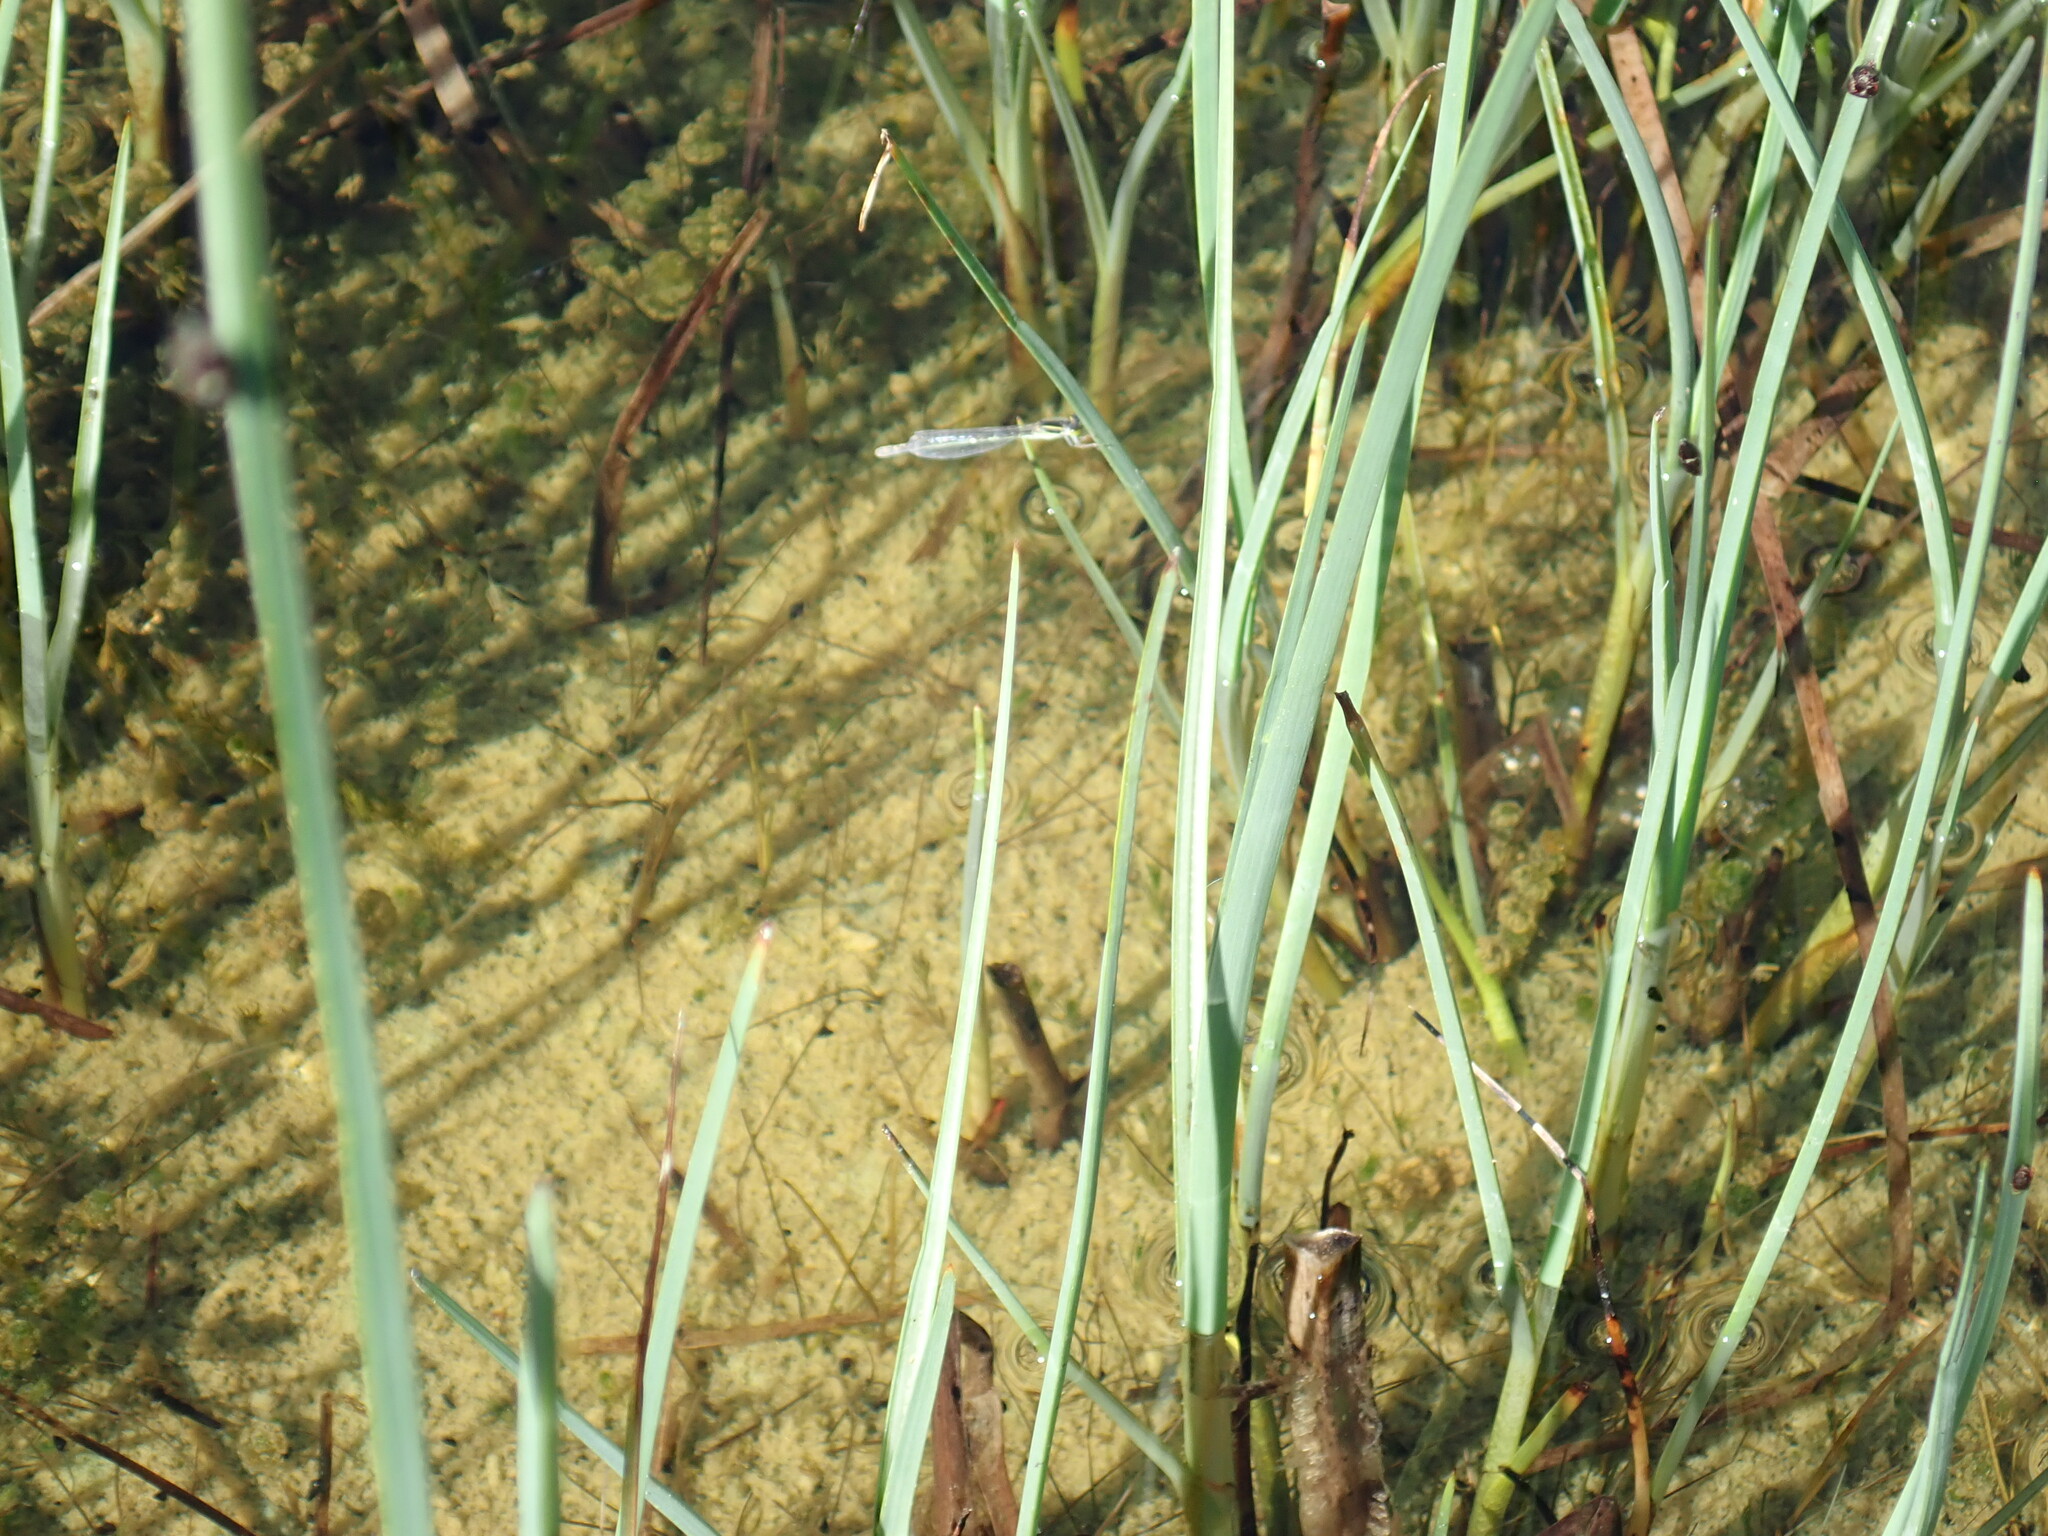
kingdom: Animalia
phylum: Arthropoda
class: Insecta
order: Odonata
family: Coenagrionidae
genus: Ischnura
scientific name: Ischnura aurora
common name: Gossamer damselfly
